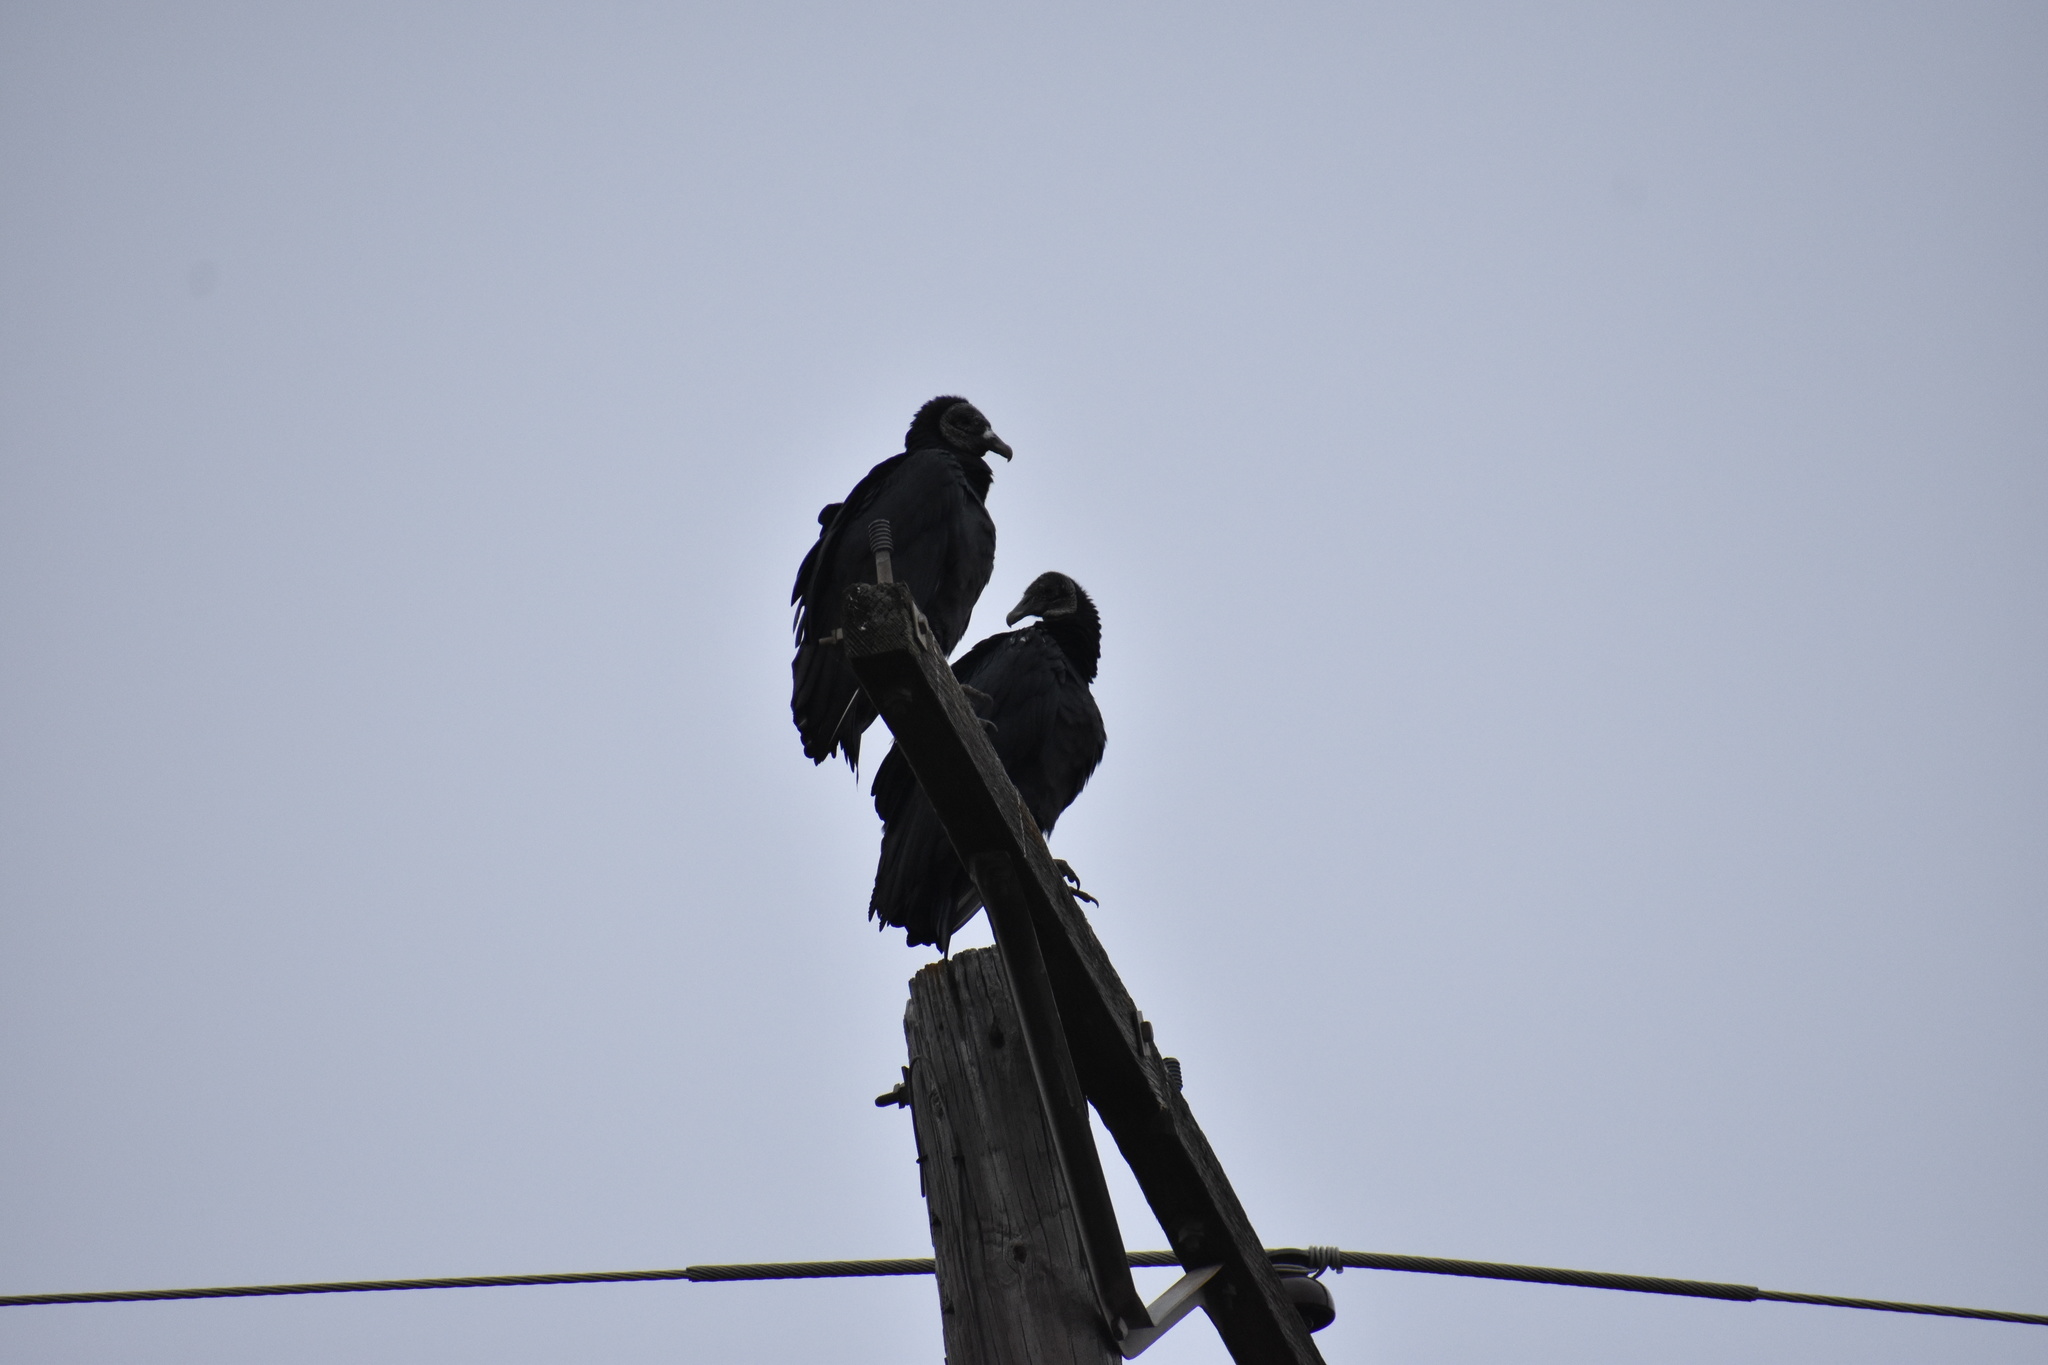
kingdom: Animalia
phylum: Chordata
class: Aves
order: Accipitriformes
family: Cathartidae
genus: Coragyps
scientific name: Coragyps atratus
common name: Black vulture
